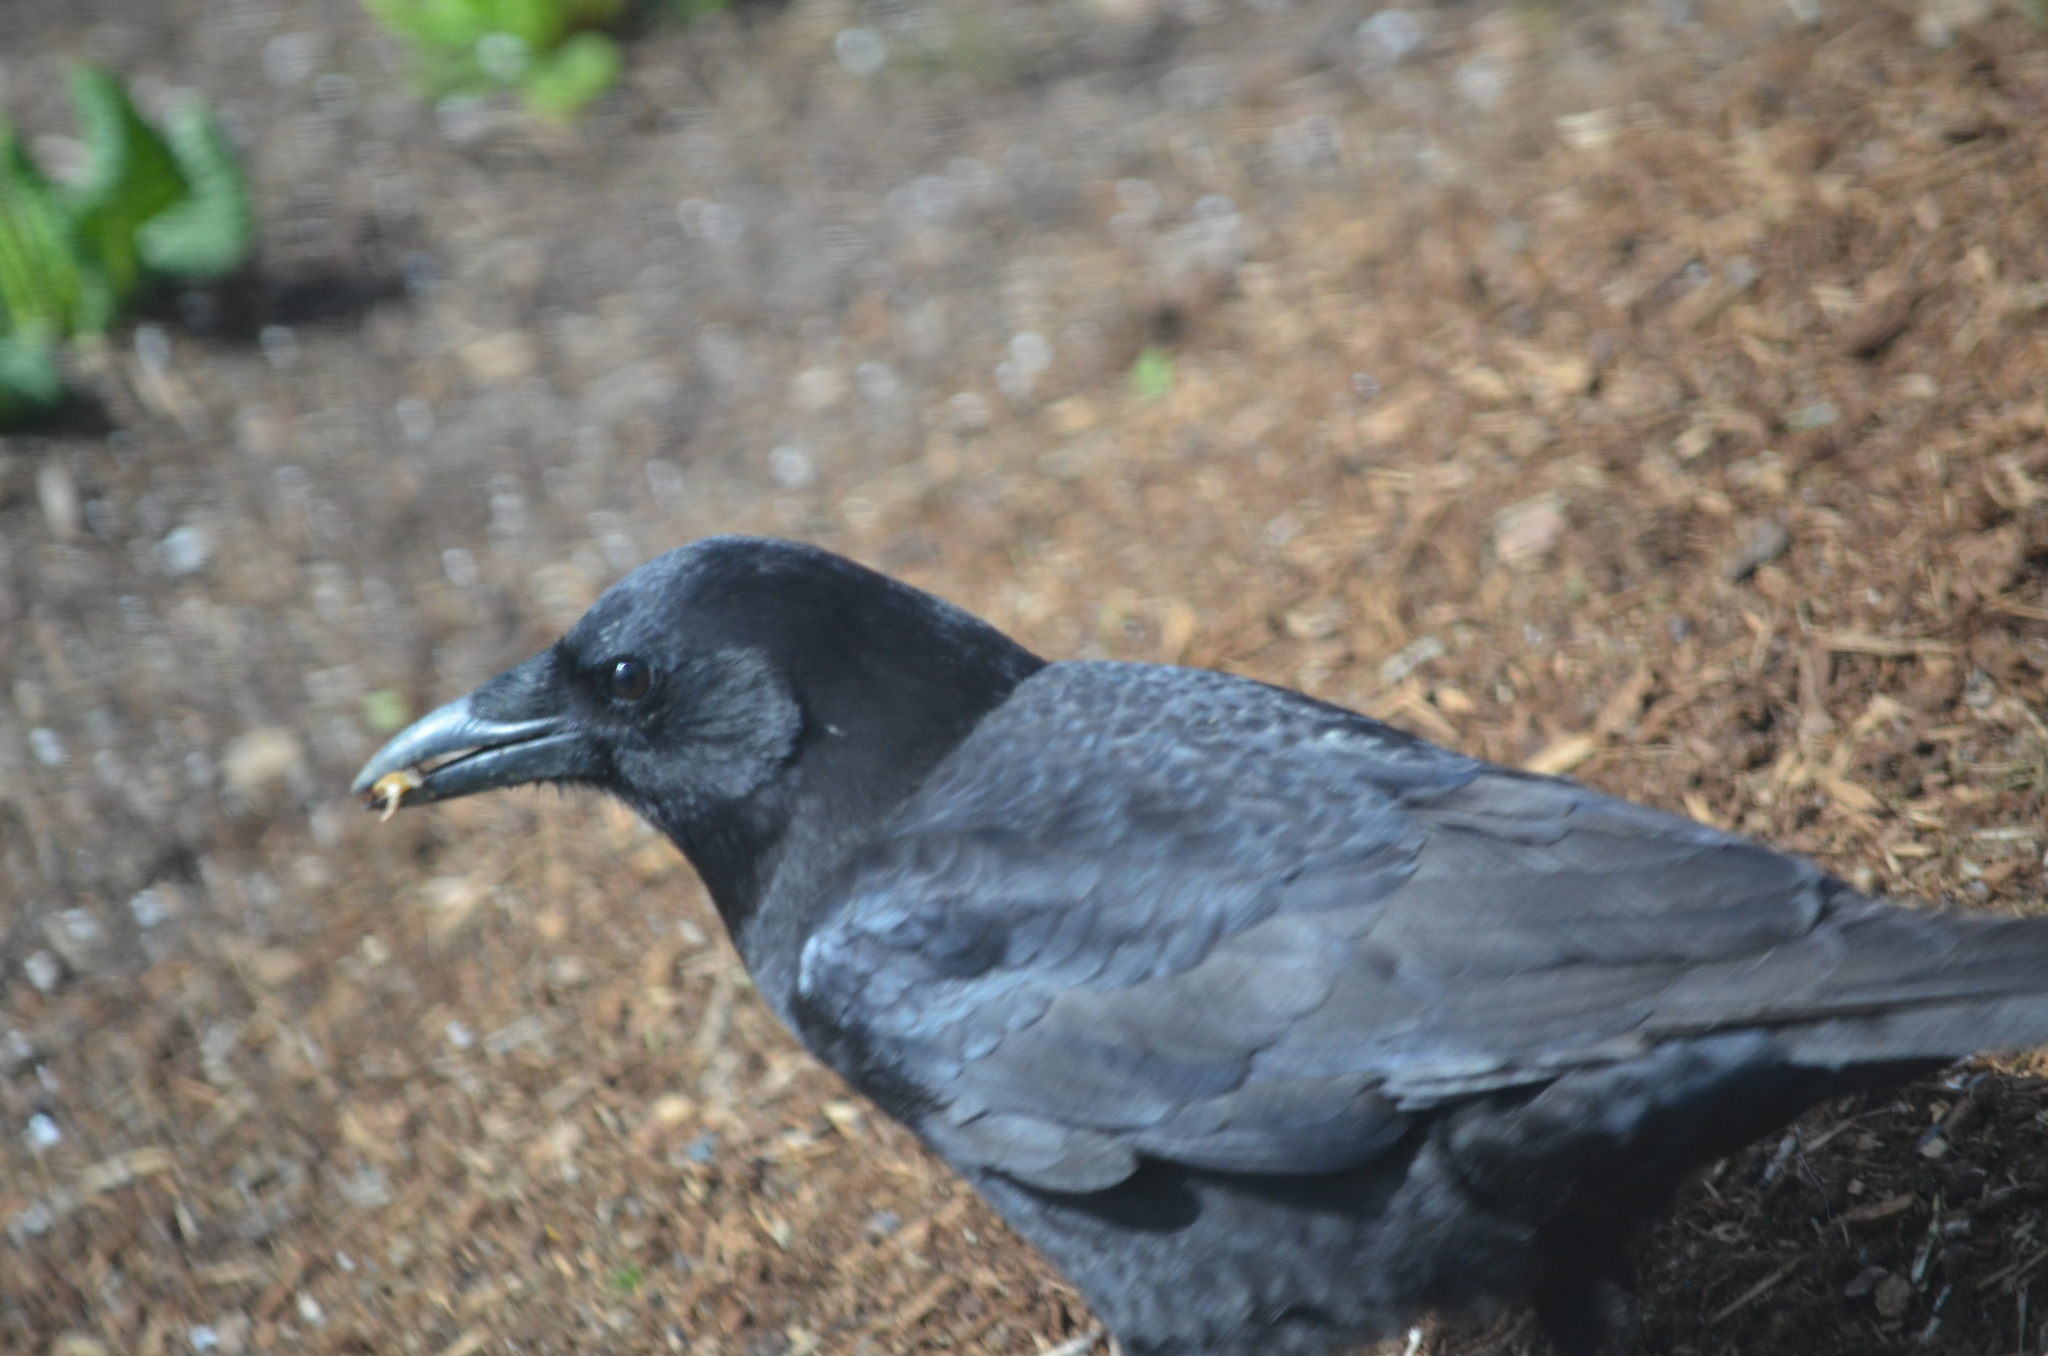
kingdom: Animalia
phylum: Chordata
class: Aves
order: Passeriformes
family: Corvidae
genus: Corvus
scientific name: Corvus brachyrhynchos
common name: American crow
